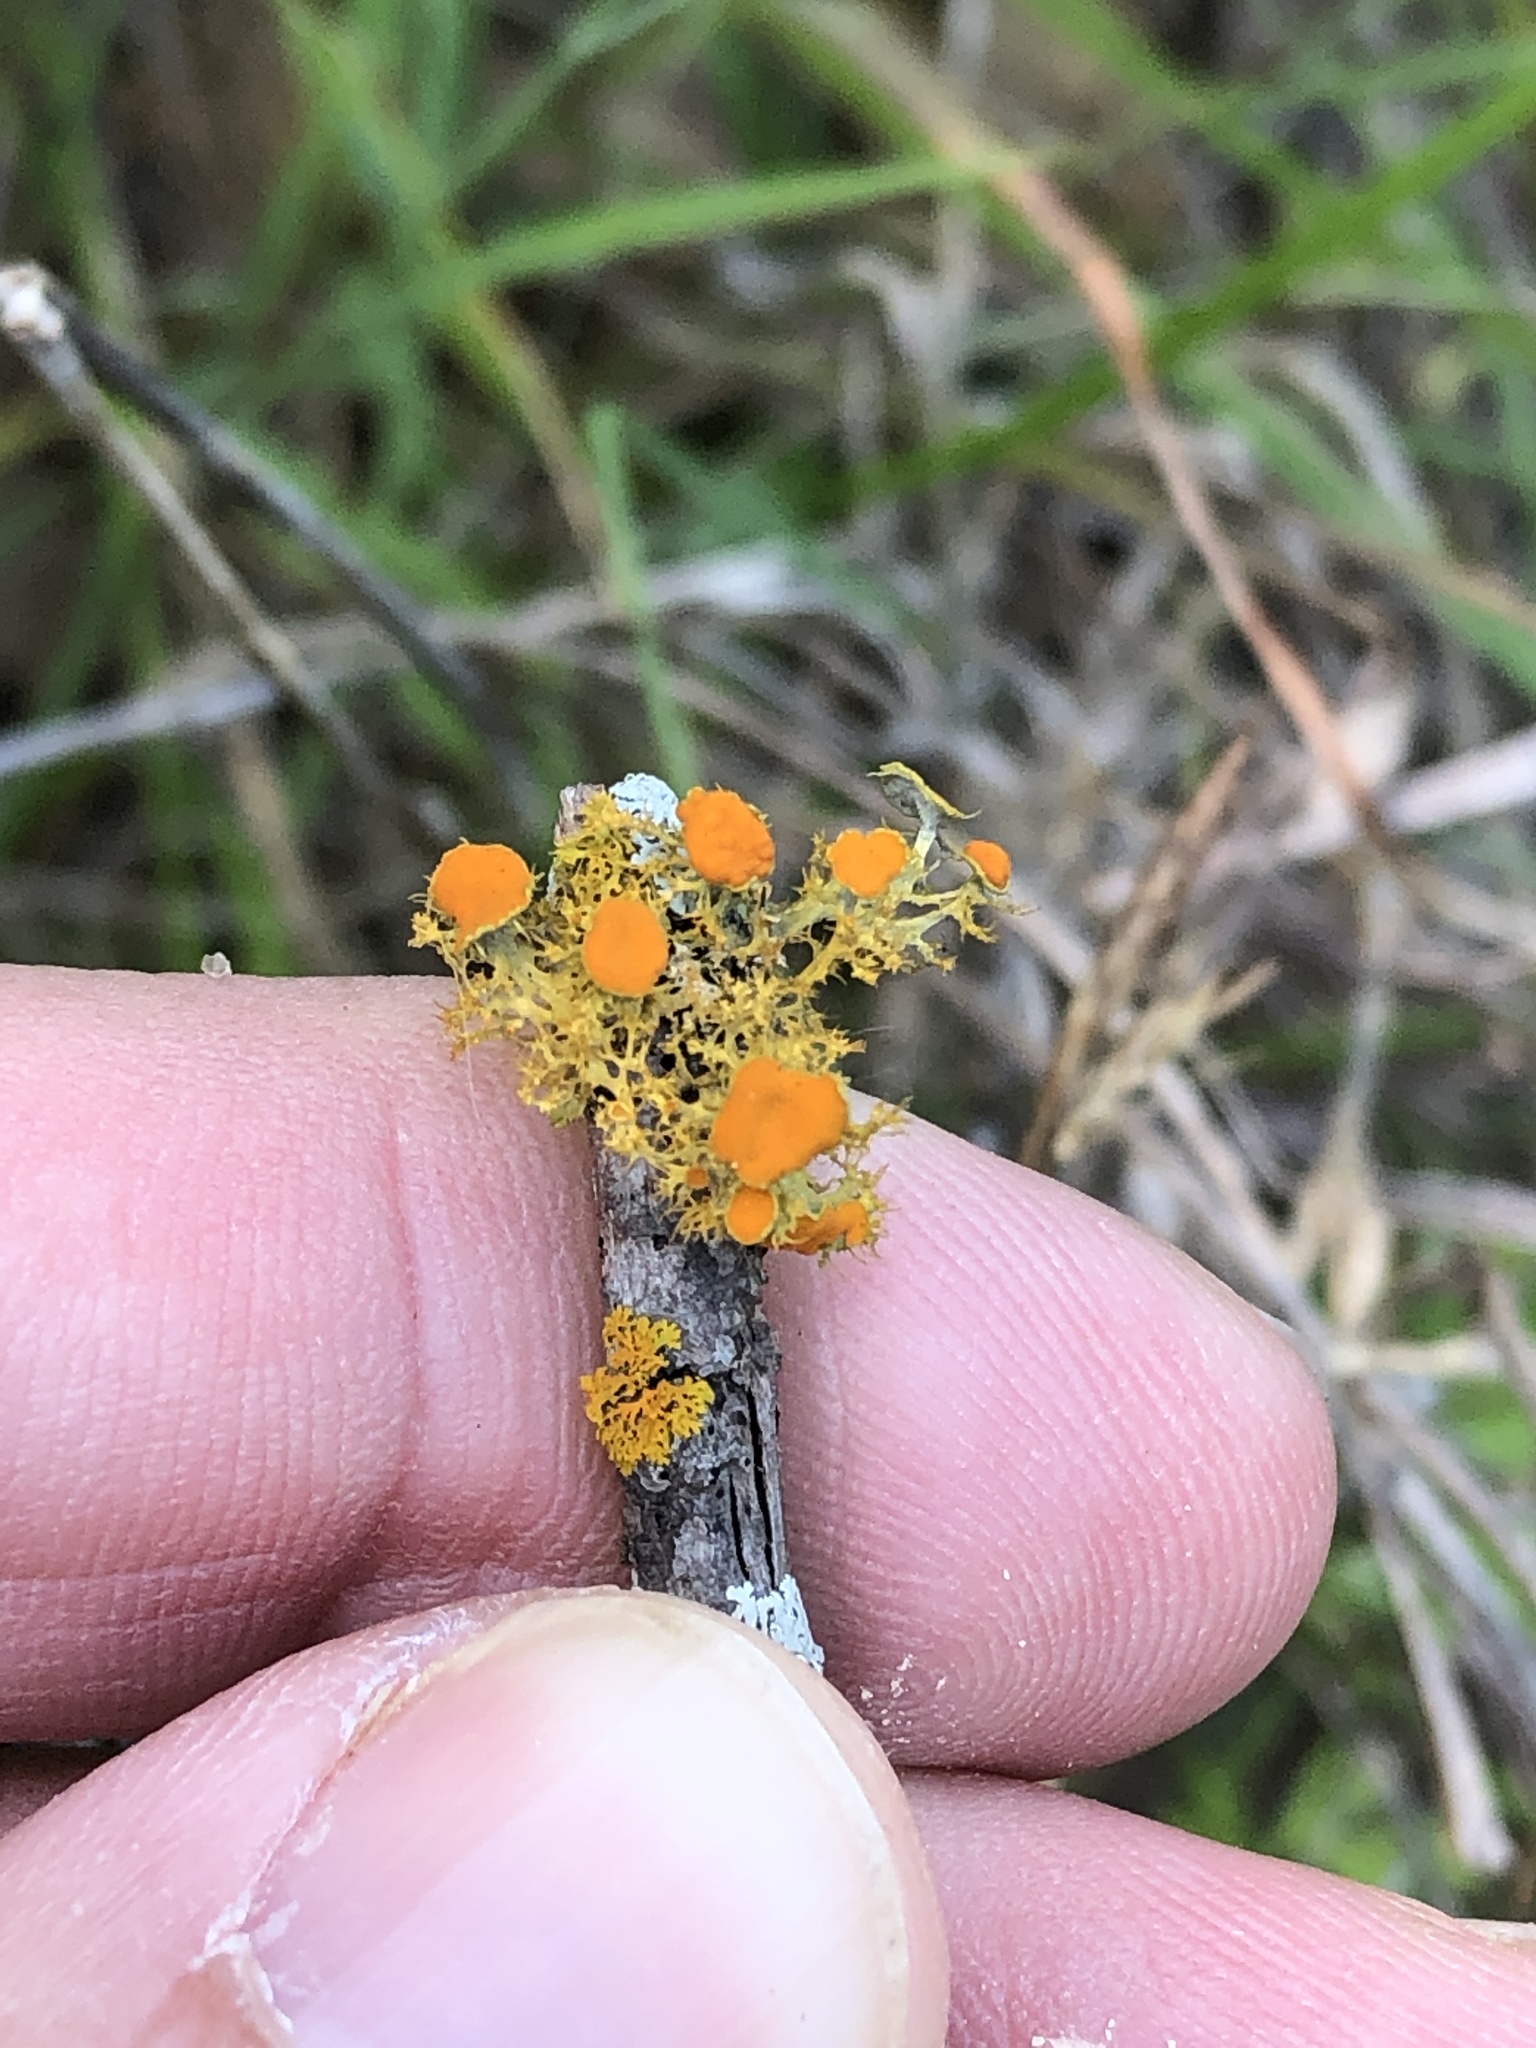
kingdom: Fungi
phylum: Ascomycota
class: Lecanoromycetes
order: Teloschistales
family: Teloschistaceae
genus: Niorma
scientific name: Niorma chrysophthalma
